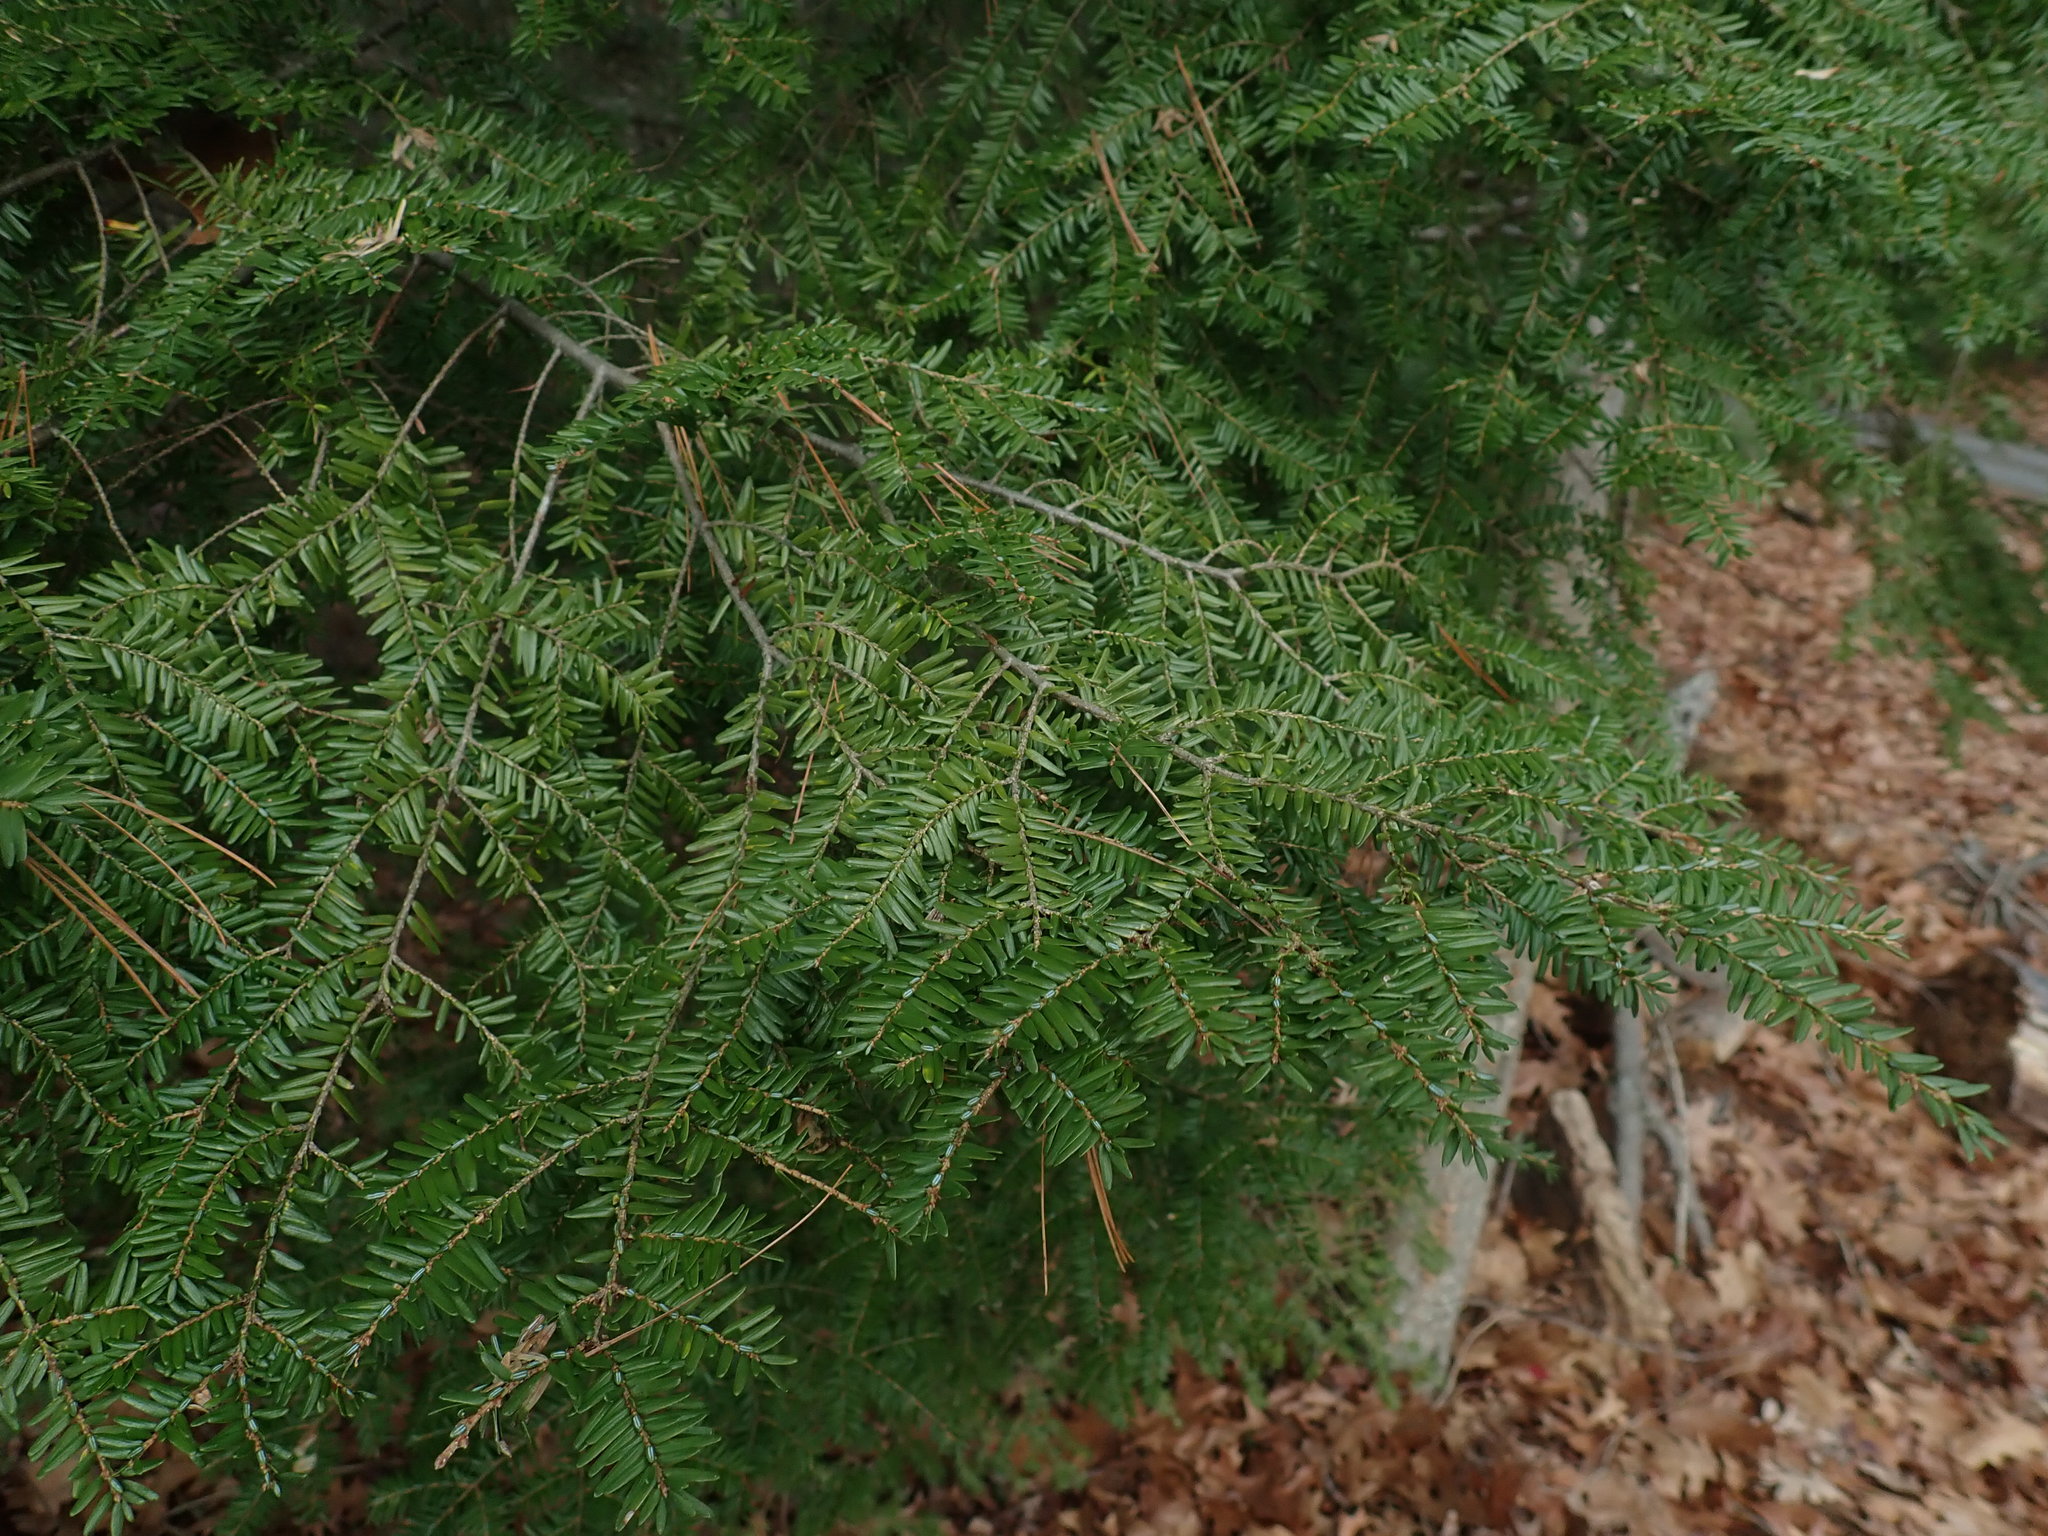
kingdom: Plantae
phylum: Tracheophyta
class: Pinopsida
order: Pinales
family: Pinaceae
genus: Tsuga
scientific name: Tsuga canadensis
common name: Eastern hemlock
